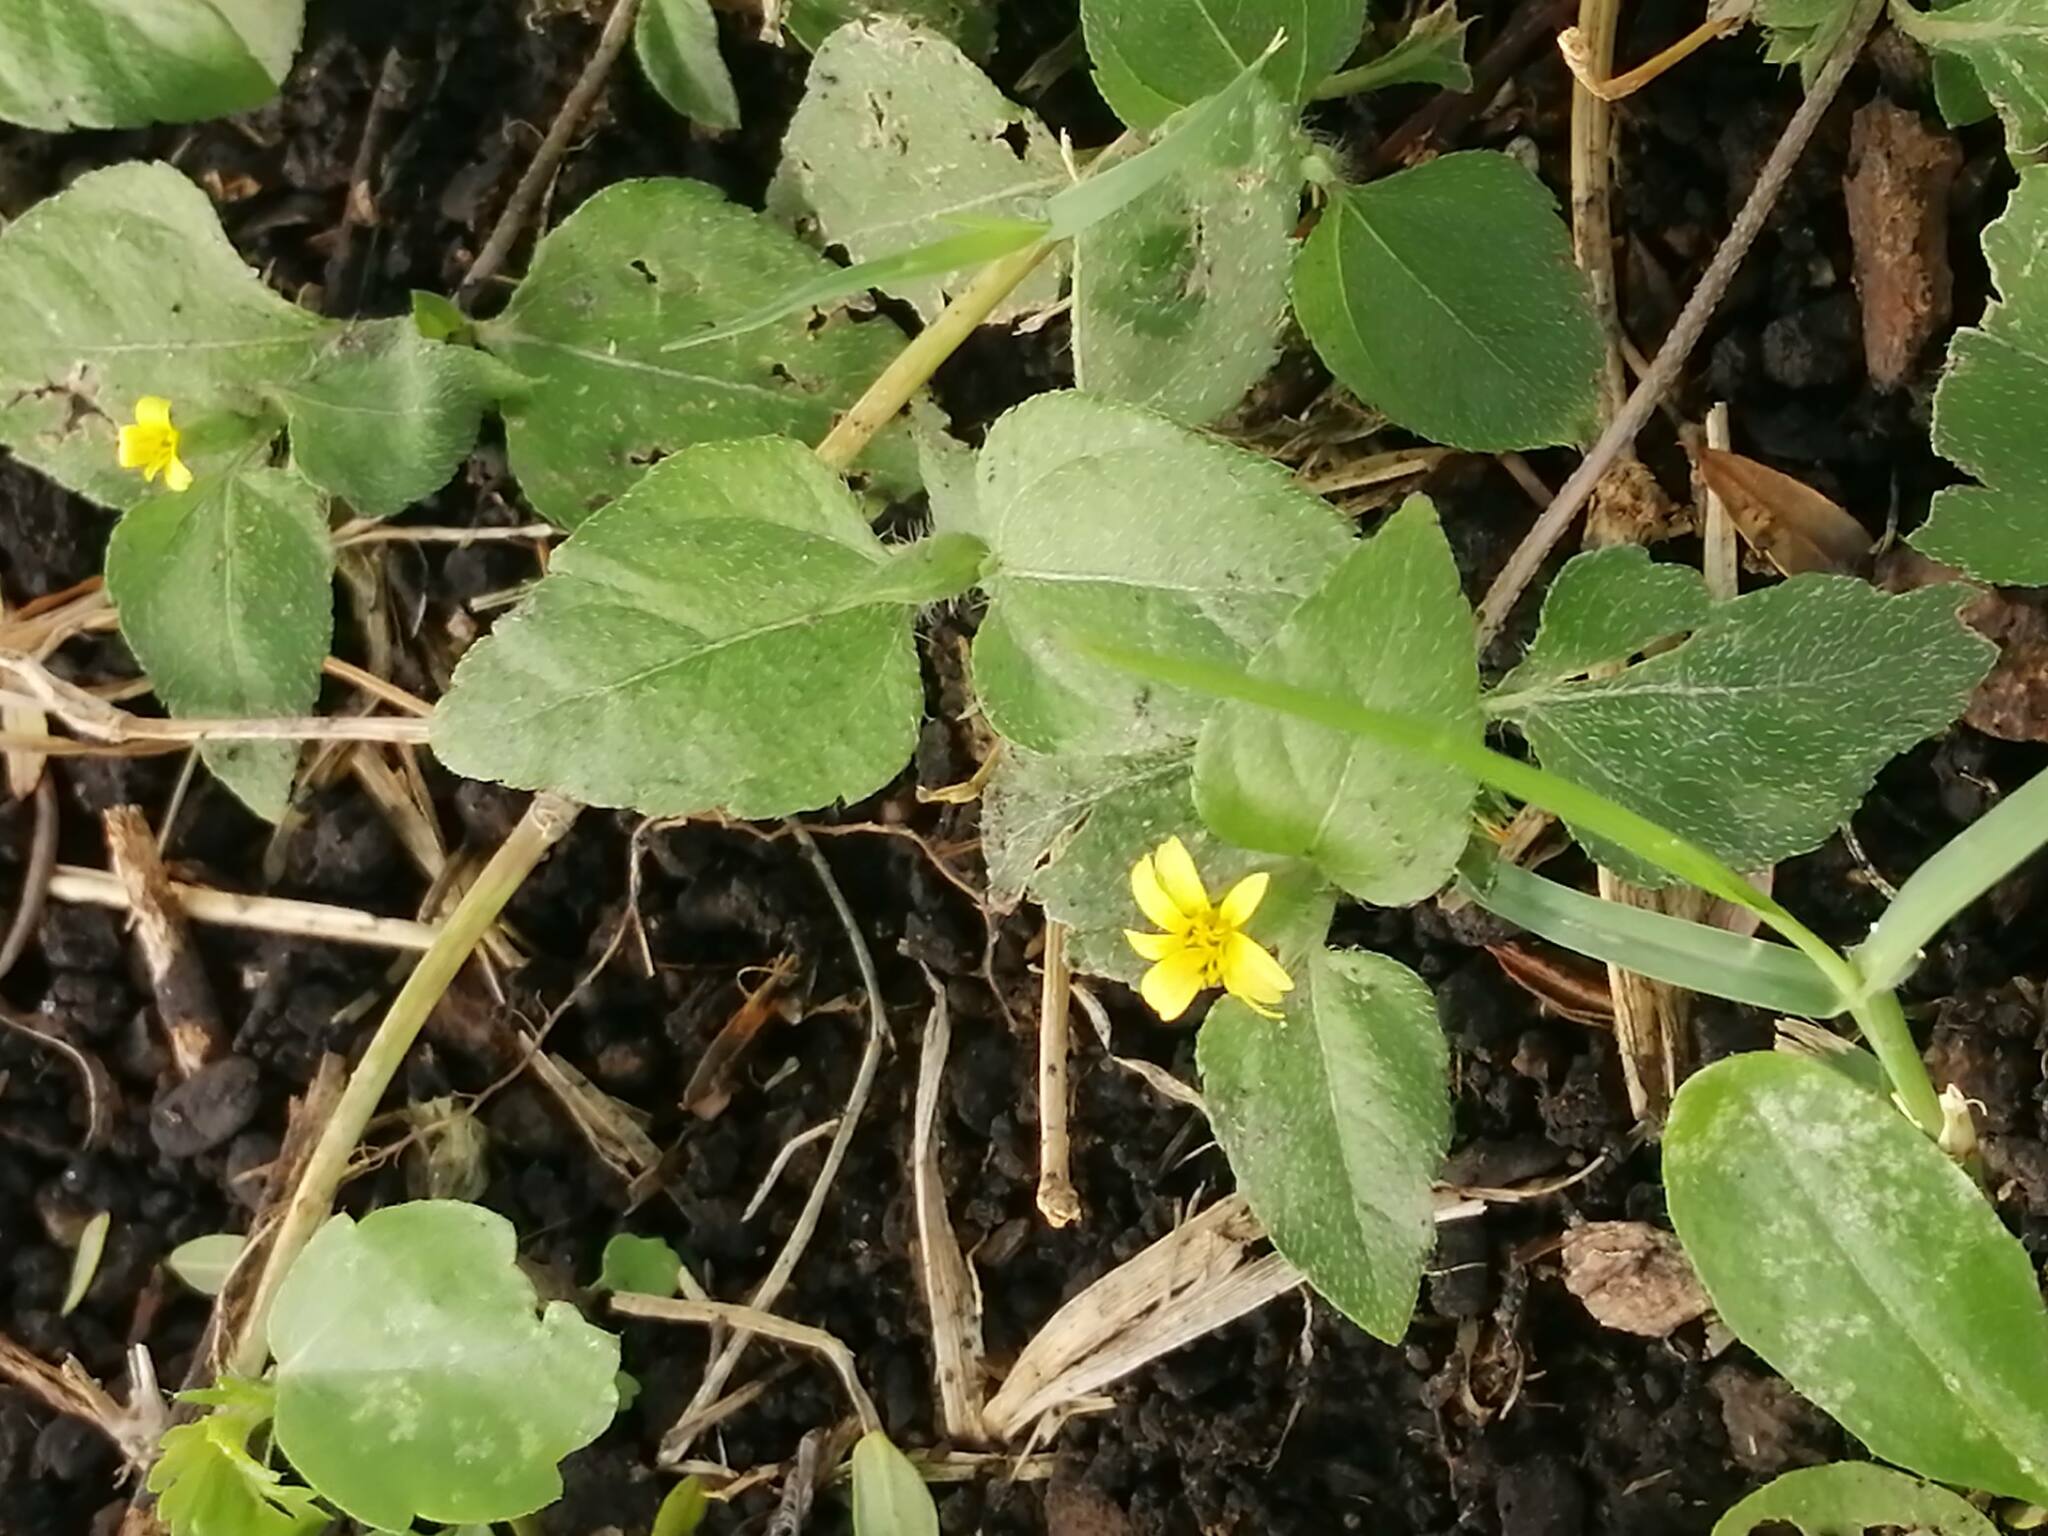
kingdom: Plantae
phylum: Tracheophyta
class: Magnoliopsida
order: Asterales
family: Asteraceae
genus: Calyptocarpus
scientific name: Calyptocarpus vialis
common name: Straggler daisy
